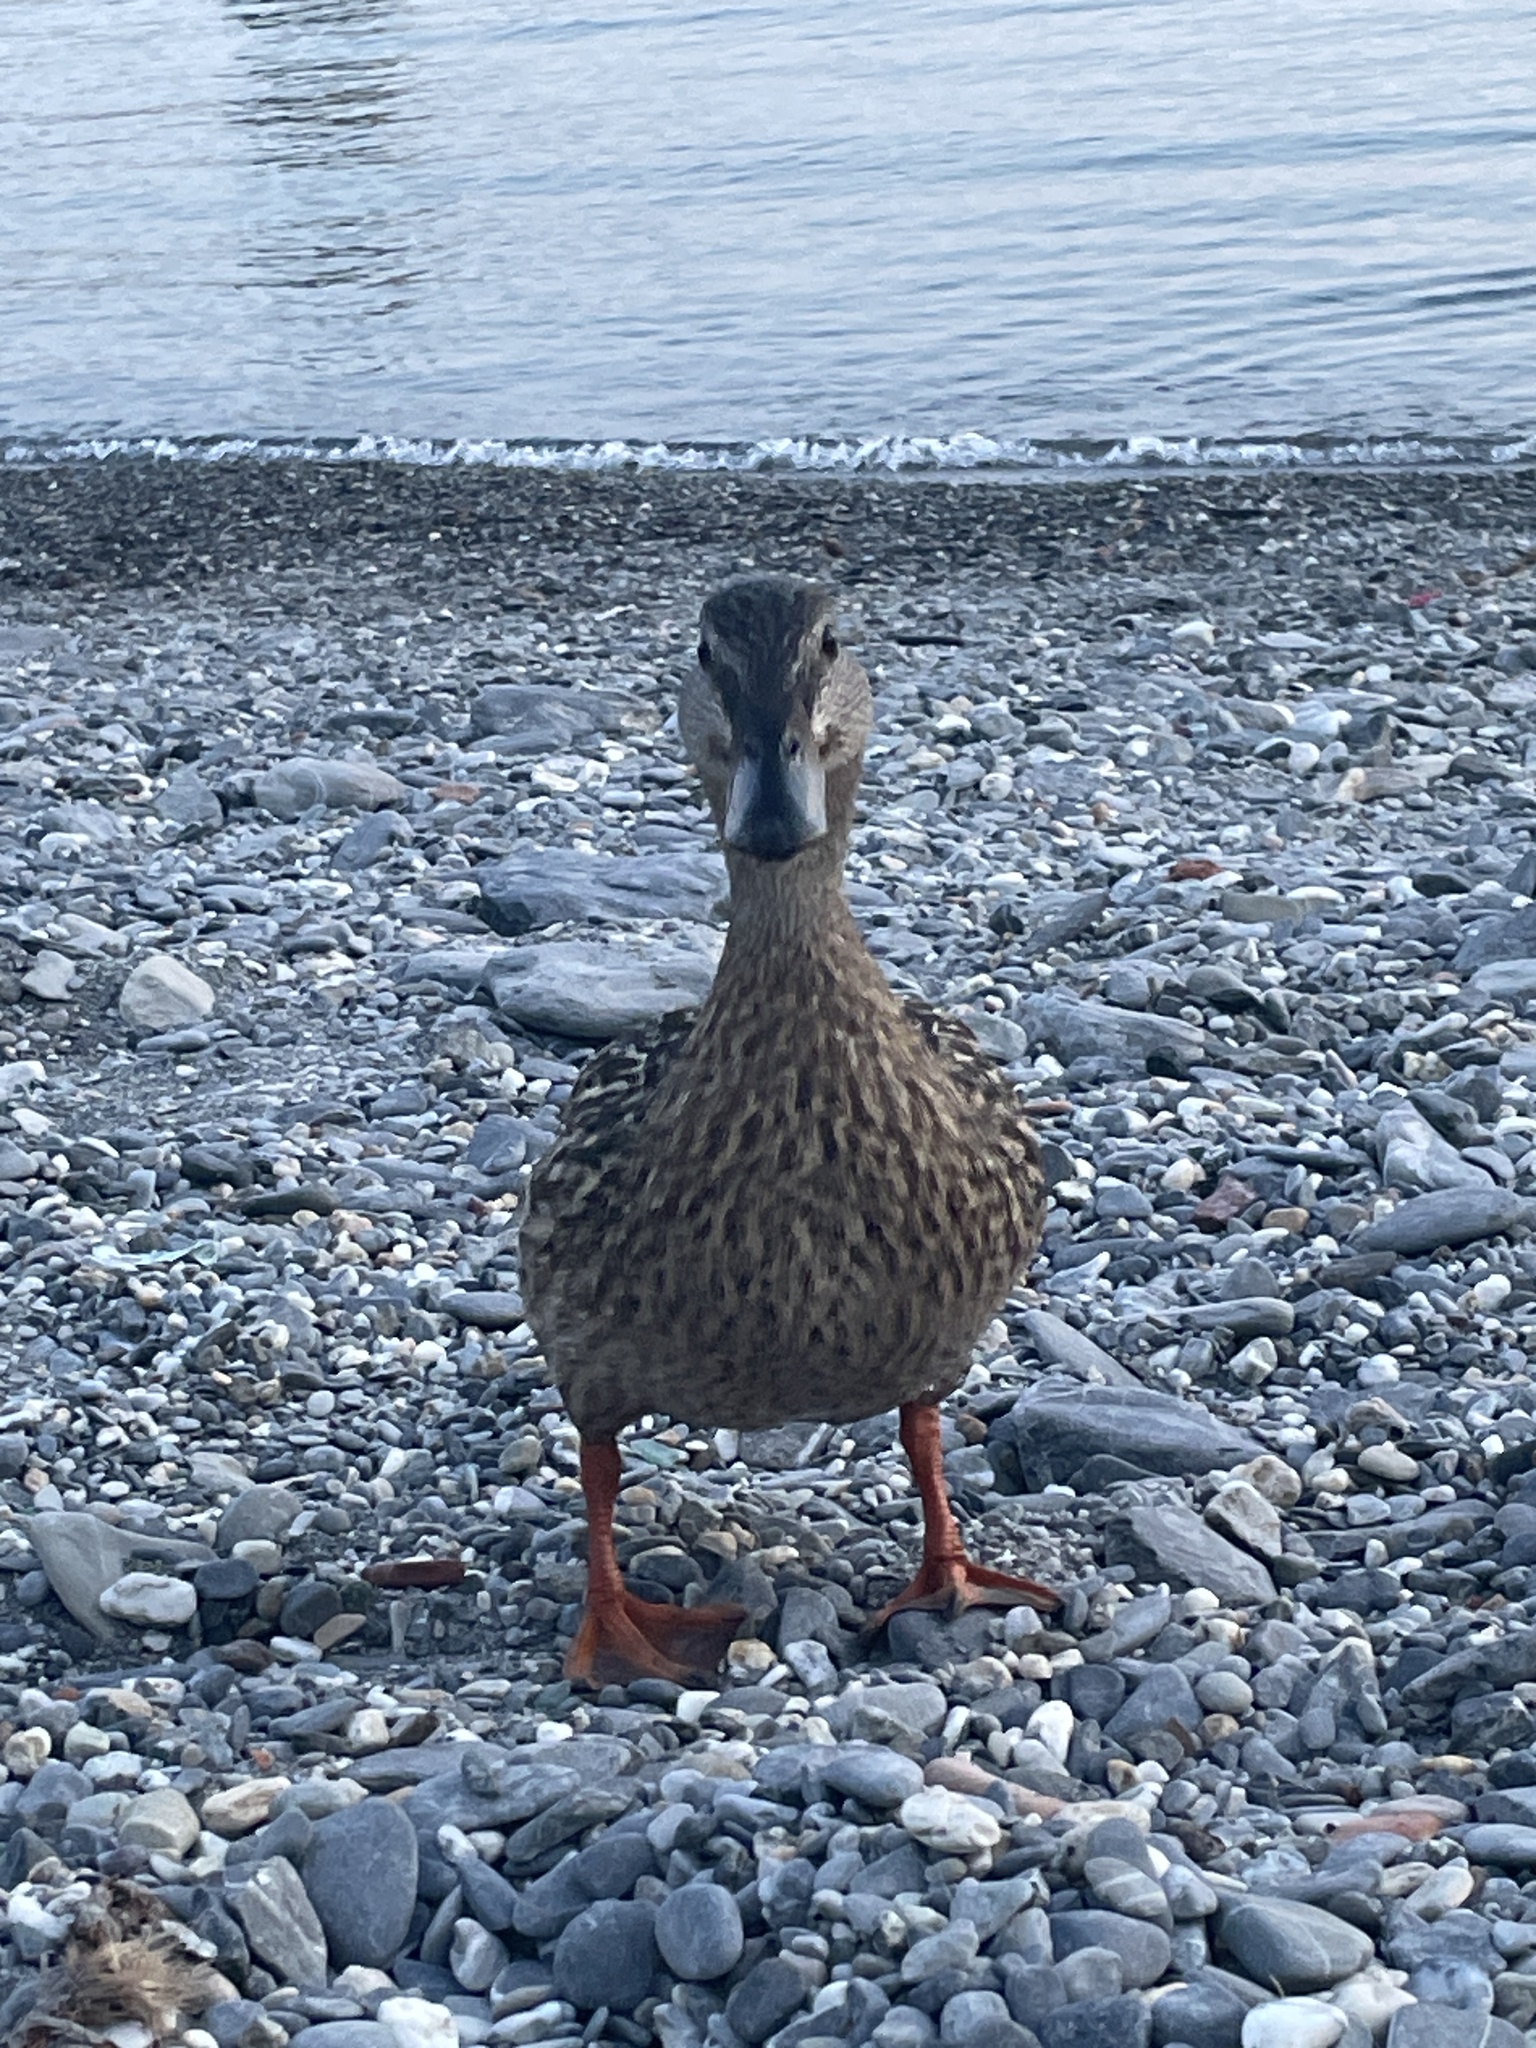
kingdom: Animalia
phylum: Chordata
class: Aves
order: Anseriformes
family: Anatidae
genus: Anas
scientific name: Anas platyrhynchos
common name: Mallard
